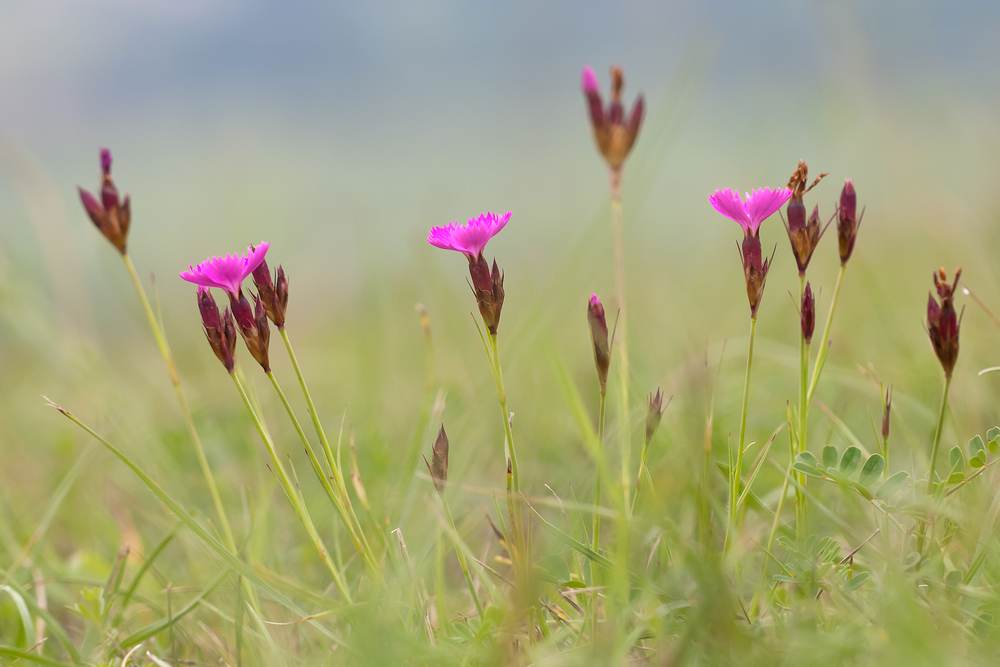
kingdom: Plantae
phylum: Tracheophyta
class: Magnoliopsida
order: Caryophyllales
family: Caryophyllaceae
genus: Dianthus
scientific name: Dianthus carthusianorum
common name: Carthusian pink
